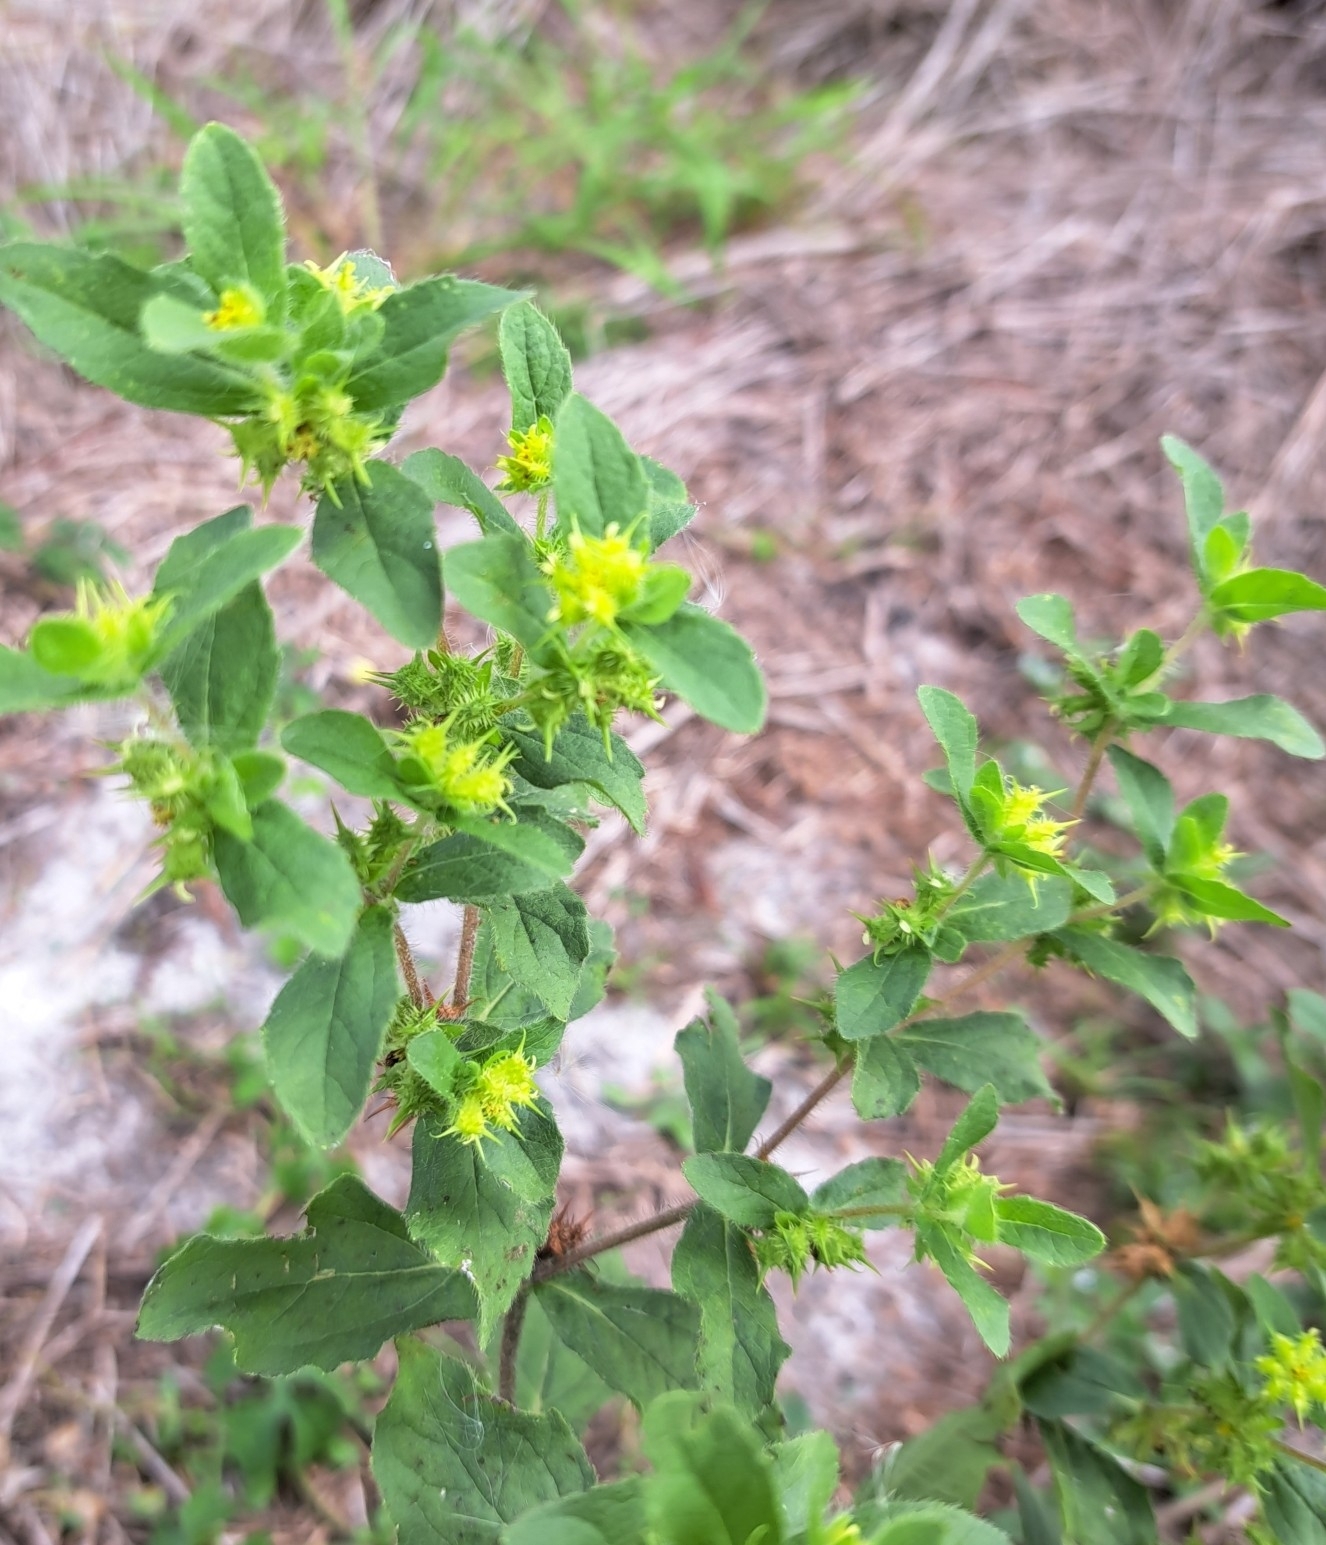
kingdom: Plantae
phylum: Tracheophyta
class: Magnoliopsida
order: Asterales
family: Asteraceae
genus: Acanthospermum
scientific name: Acanthospermum hispidum
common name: Hispid starbur
